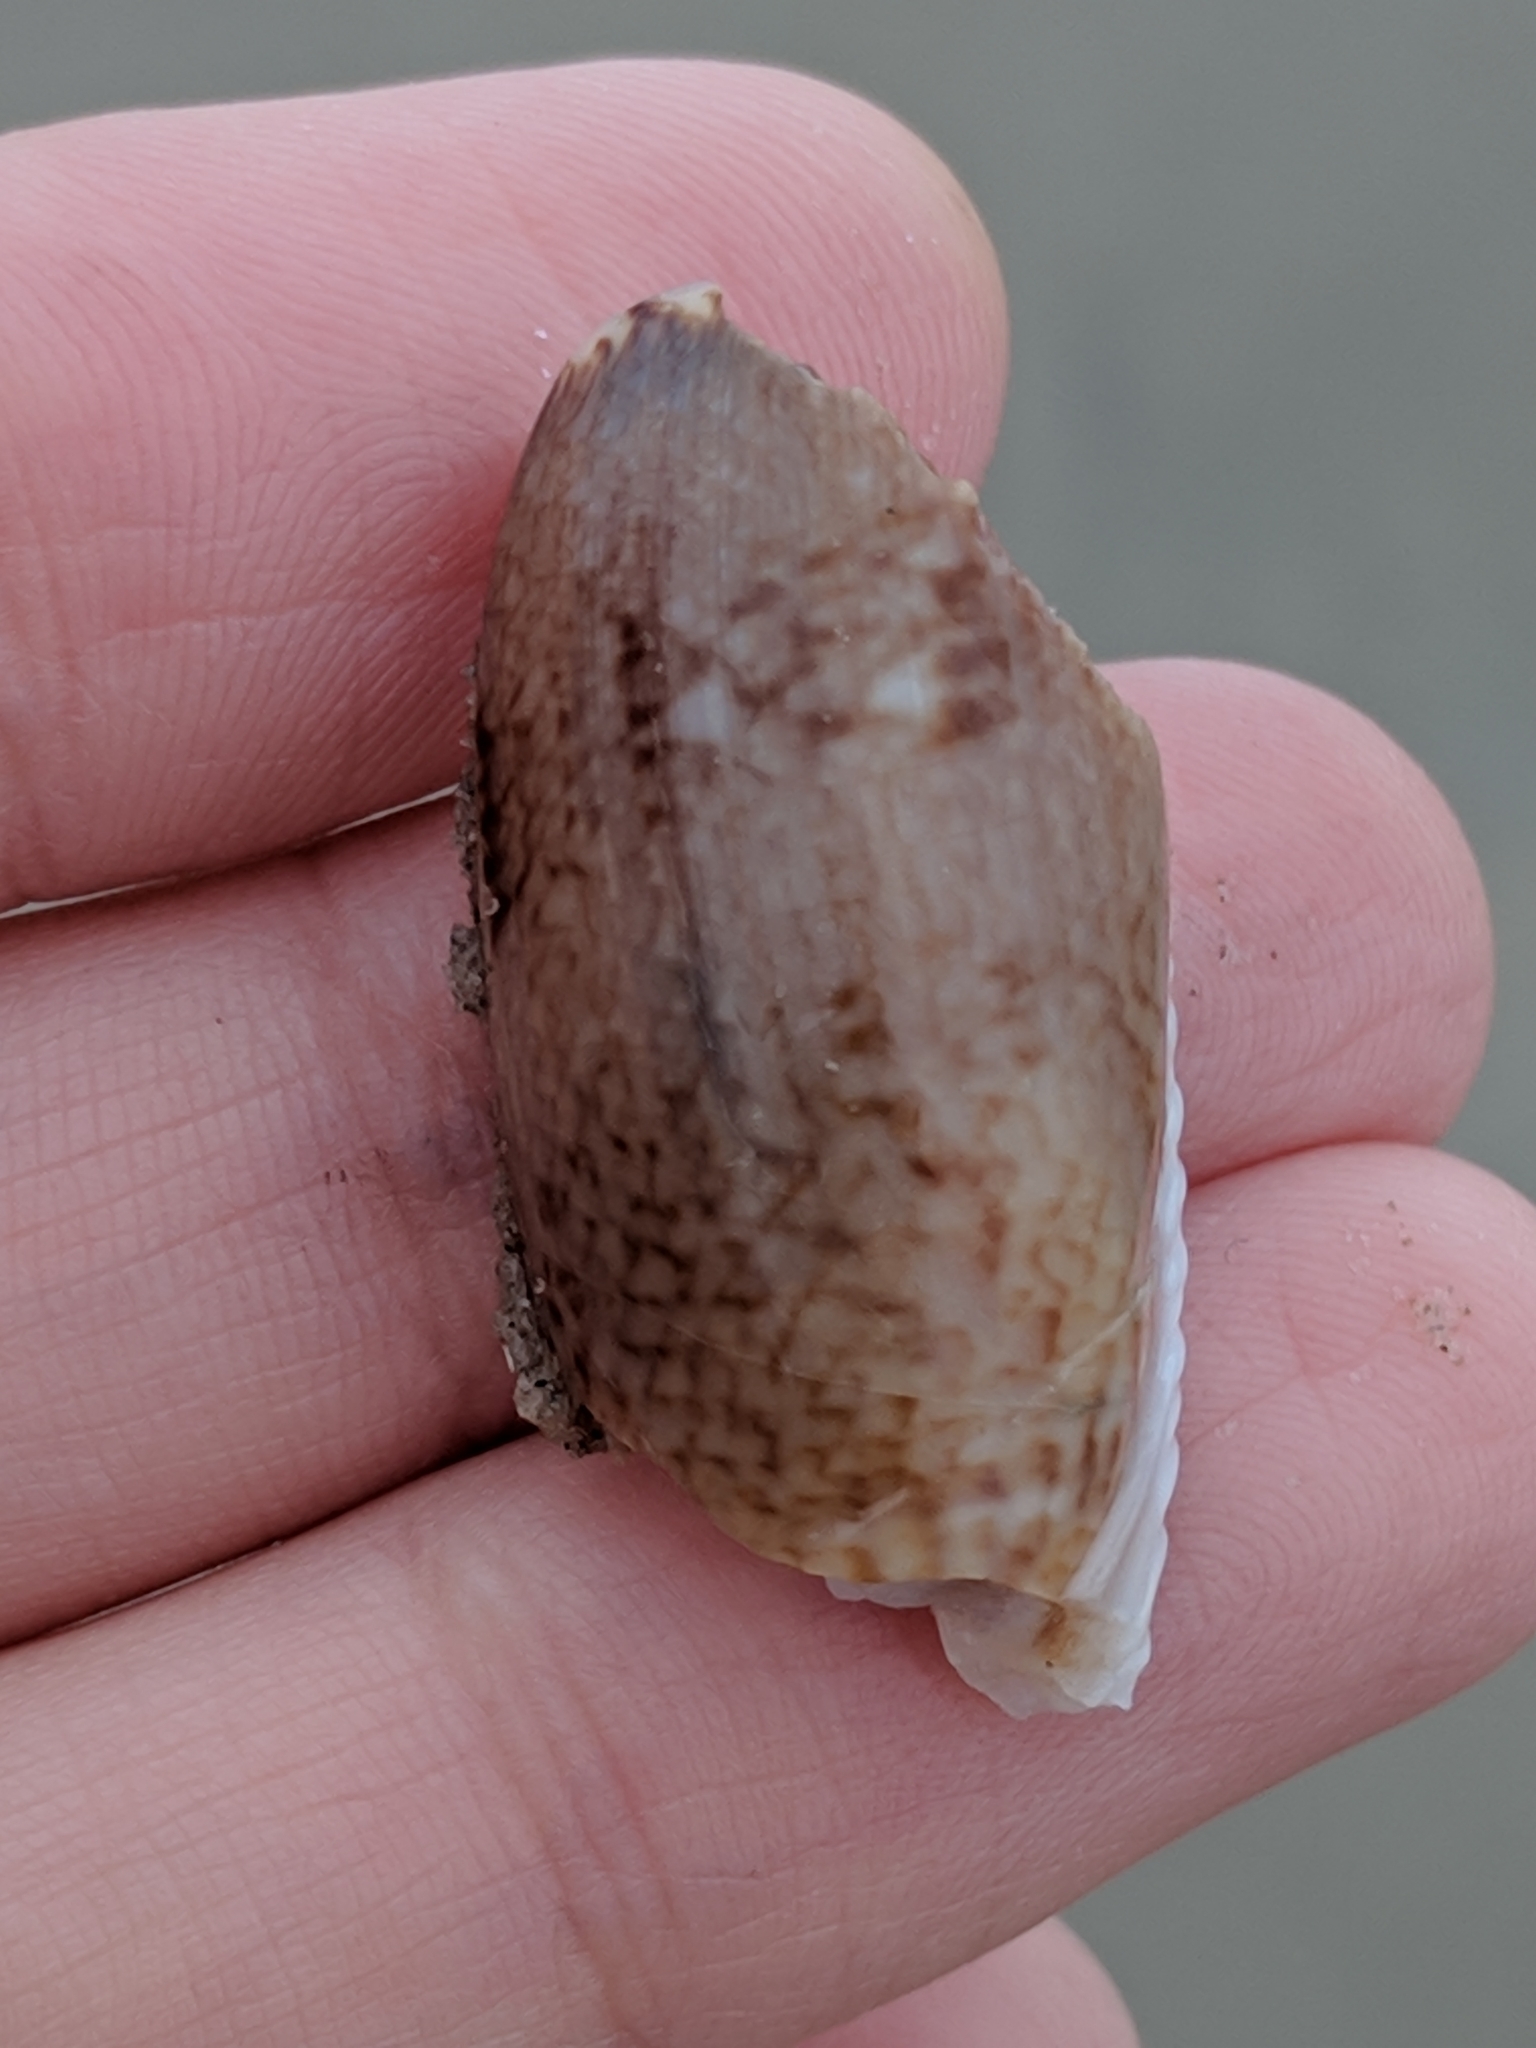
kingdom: Animalia
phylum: Mollusca
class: Gastropoda
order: Neogastropoda
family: Olividae
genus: Oliva
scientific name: Oliva sayana
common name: Lettered olive
